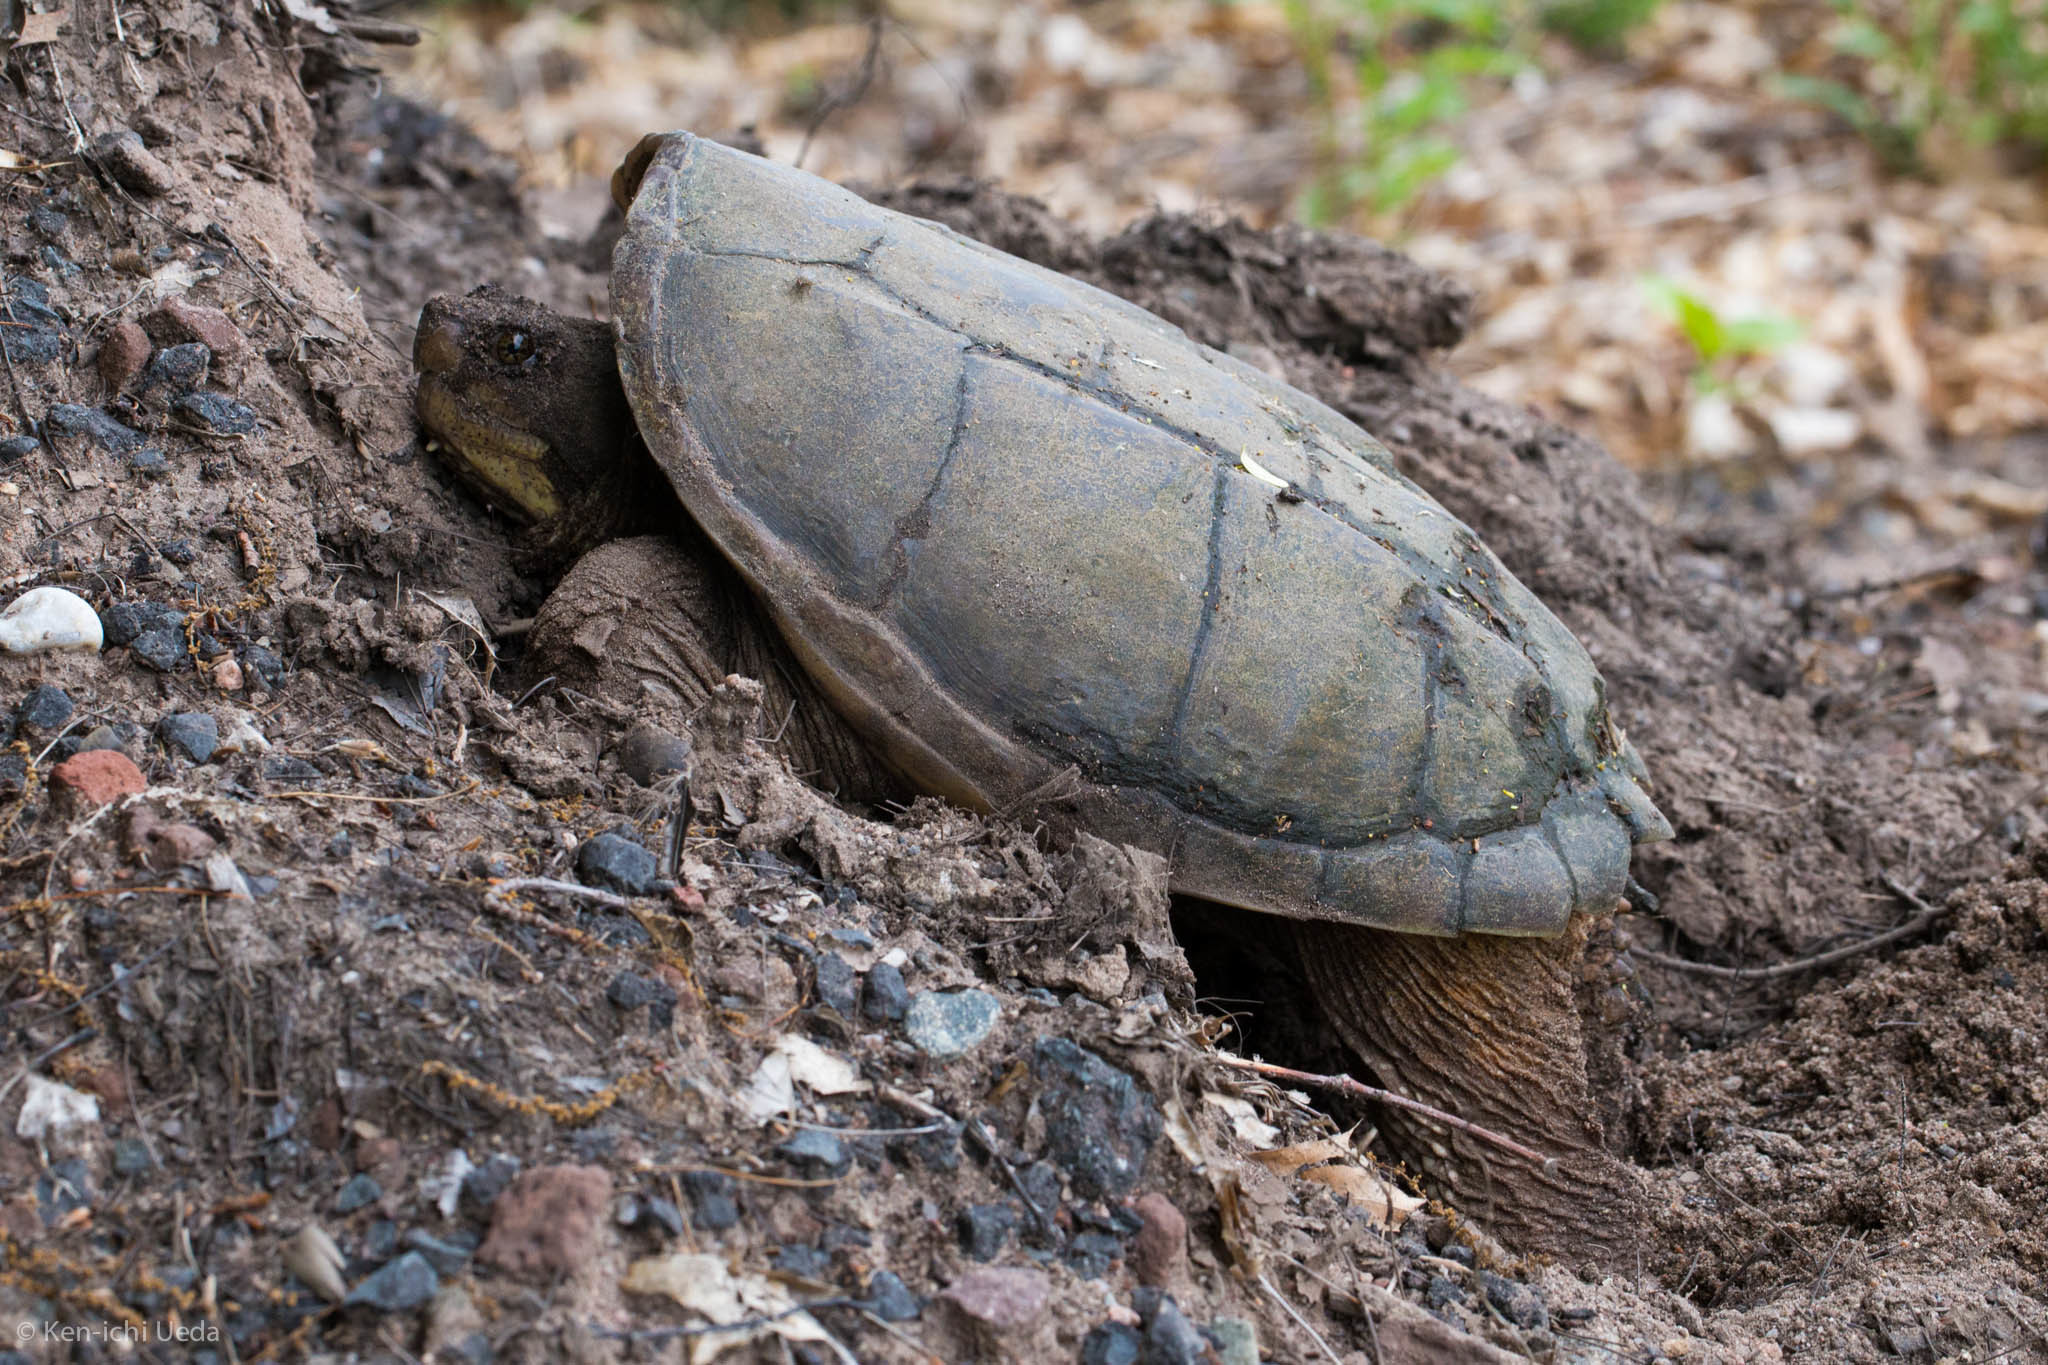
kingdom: Animalia
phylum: Chordata
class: Testudines
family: Chelydridae
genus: Chelydra
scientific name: Chelydra serpentina
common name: Common snapping turtle
